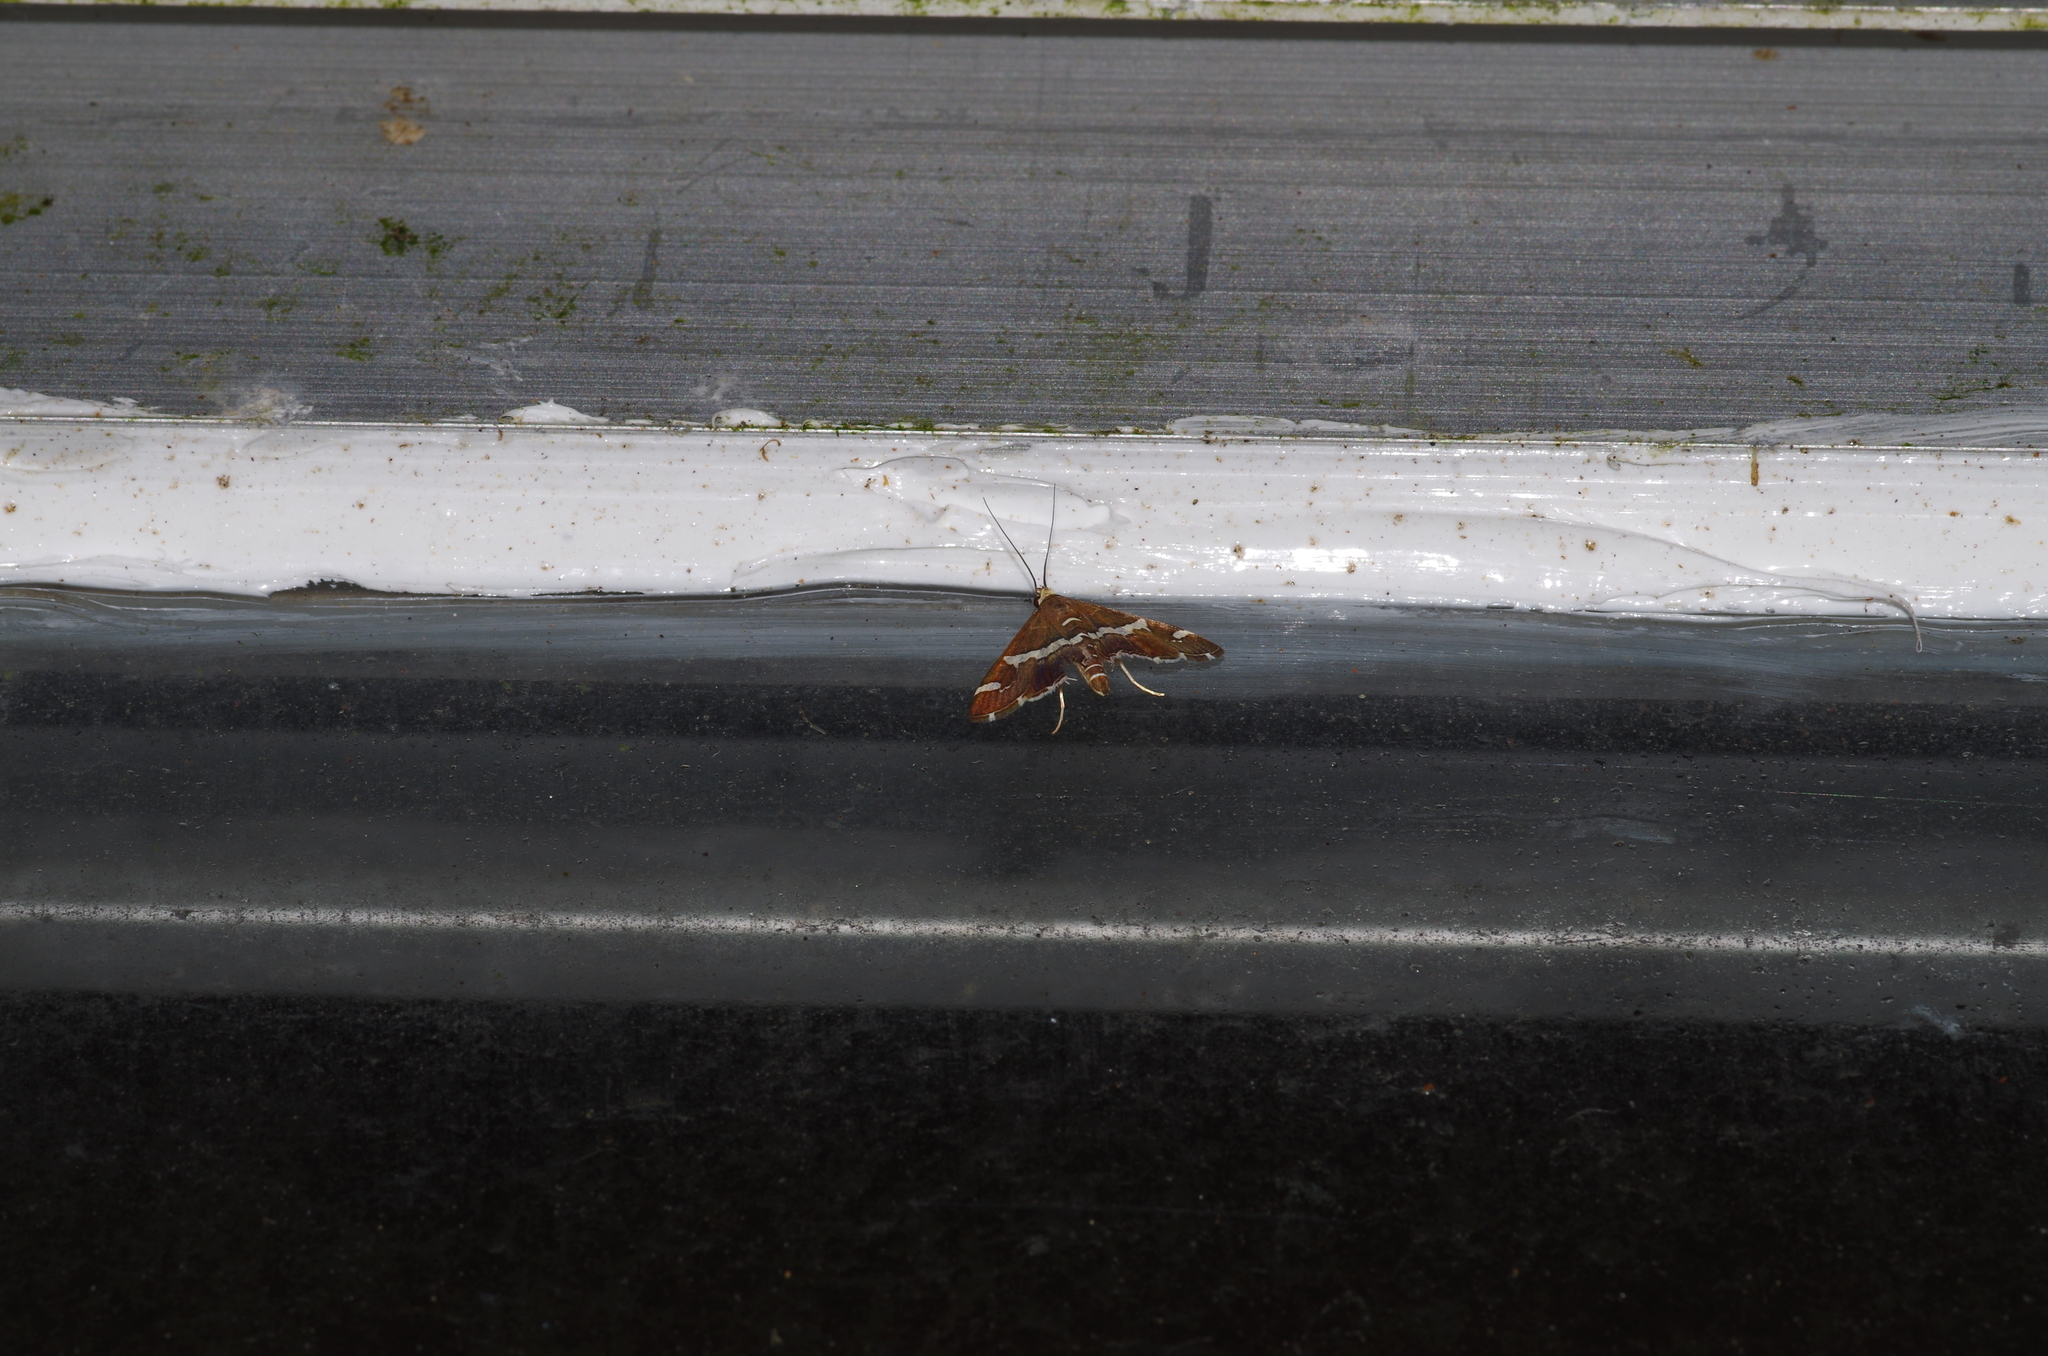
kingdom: Animalia
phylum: Arthropoda
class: Insecta
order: Lepidoptera
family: Crambidae
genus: Spoladea
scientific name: Spoladea recurvalis
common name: Beet webworm moth
